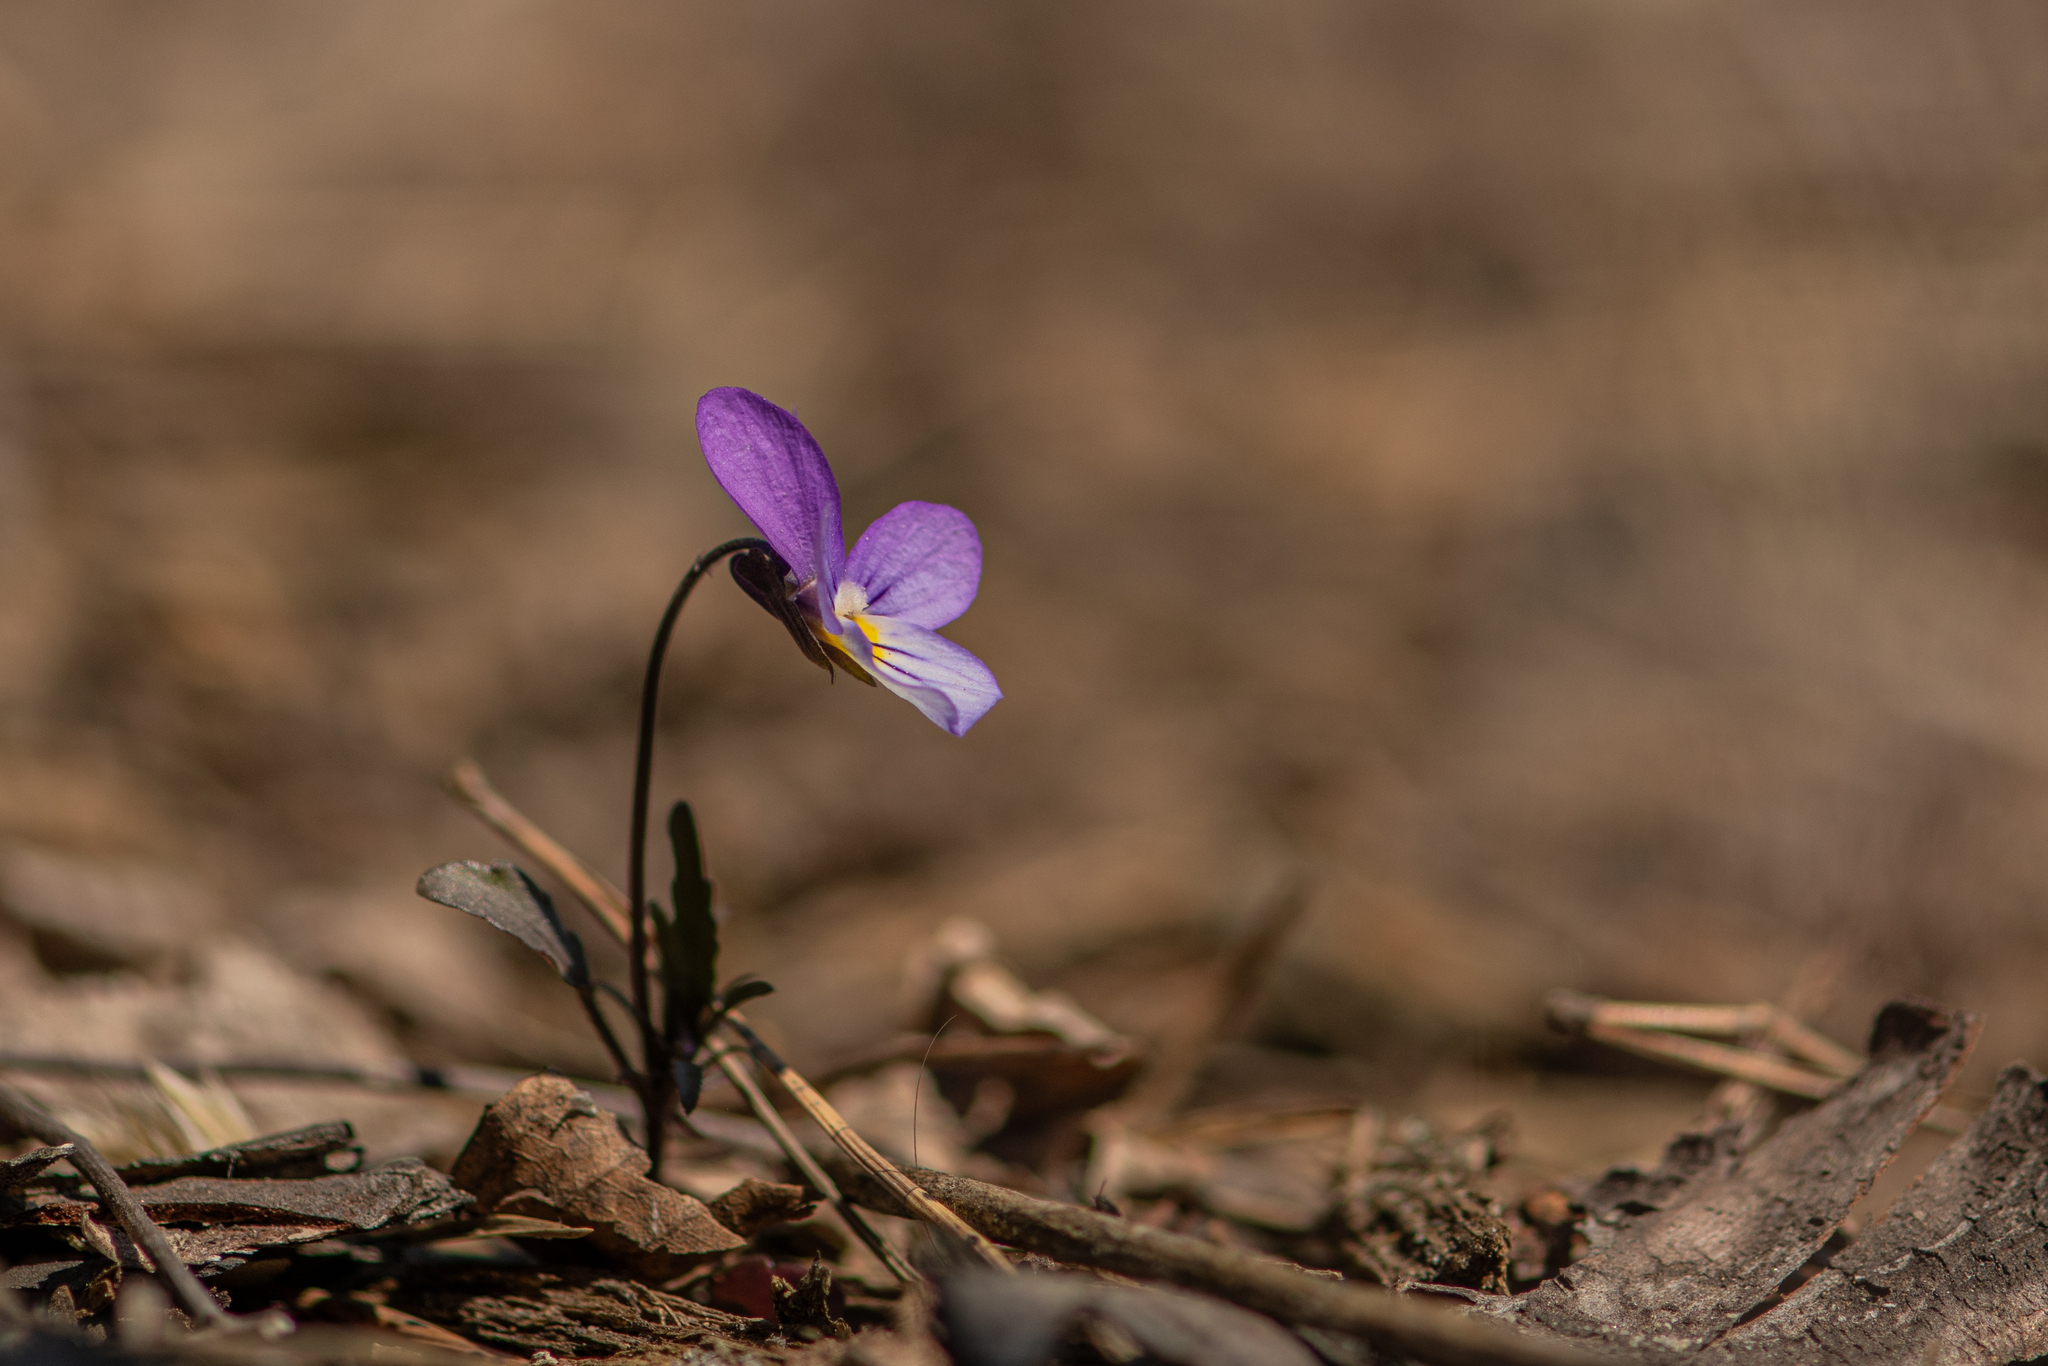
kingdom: Plantae
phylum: Tracheophyta
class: Magnoliopsida
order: Malpighiales
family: Violaceae
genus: Viola
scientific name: Viola tricolor
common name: Pansy
